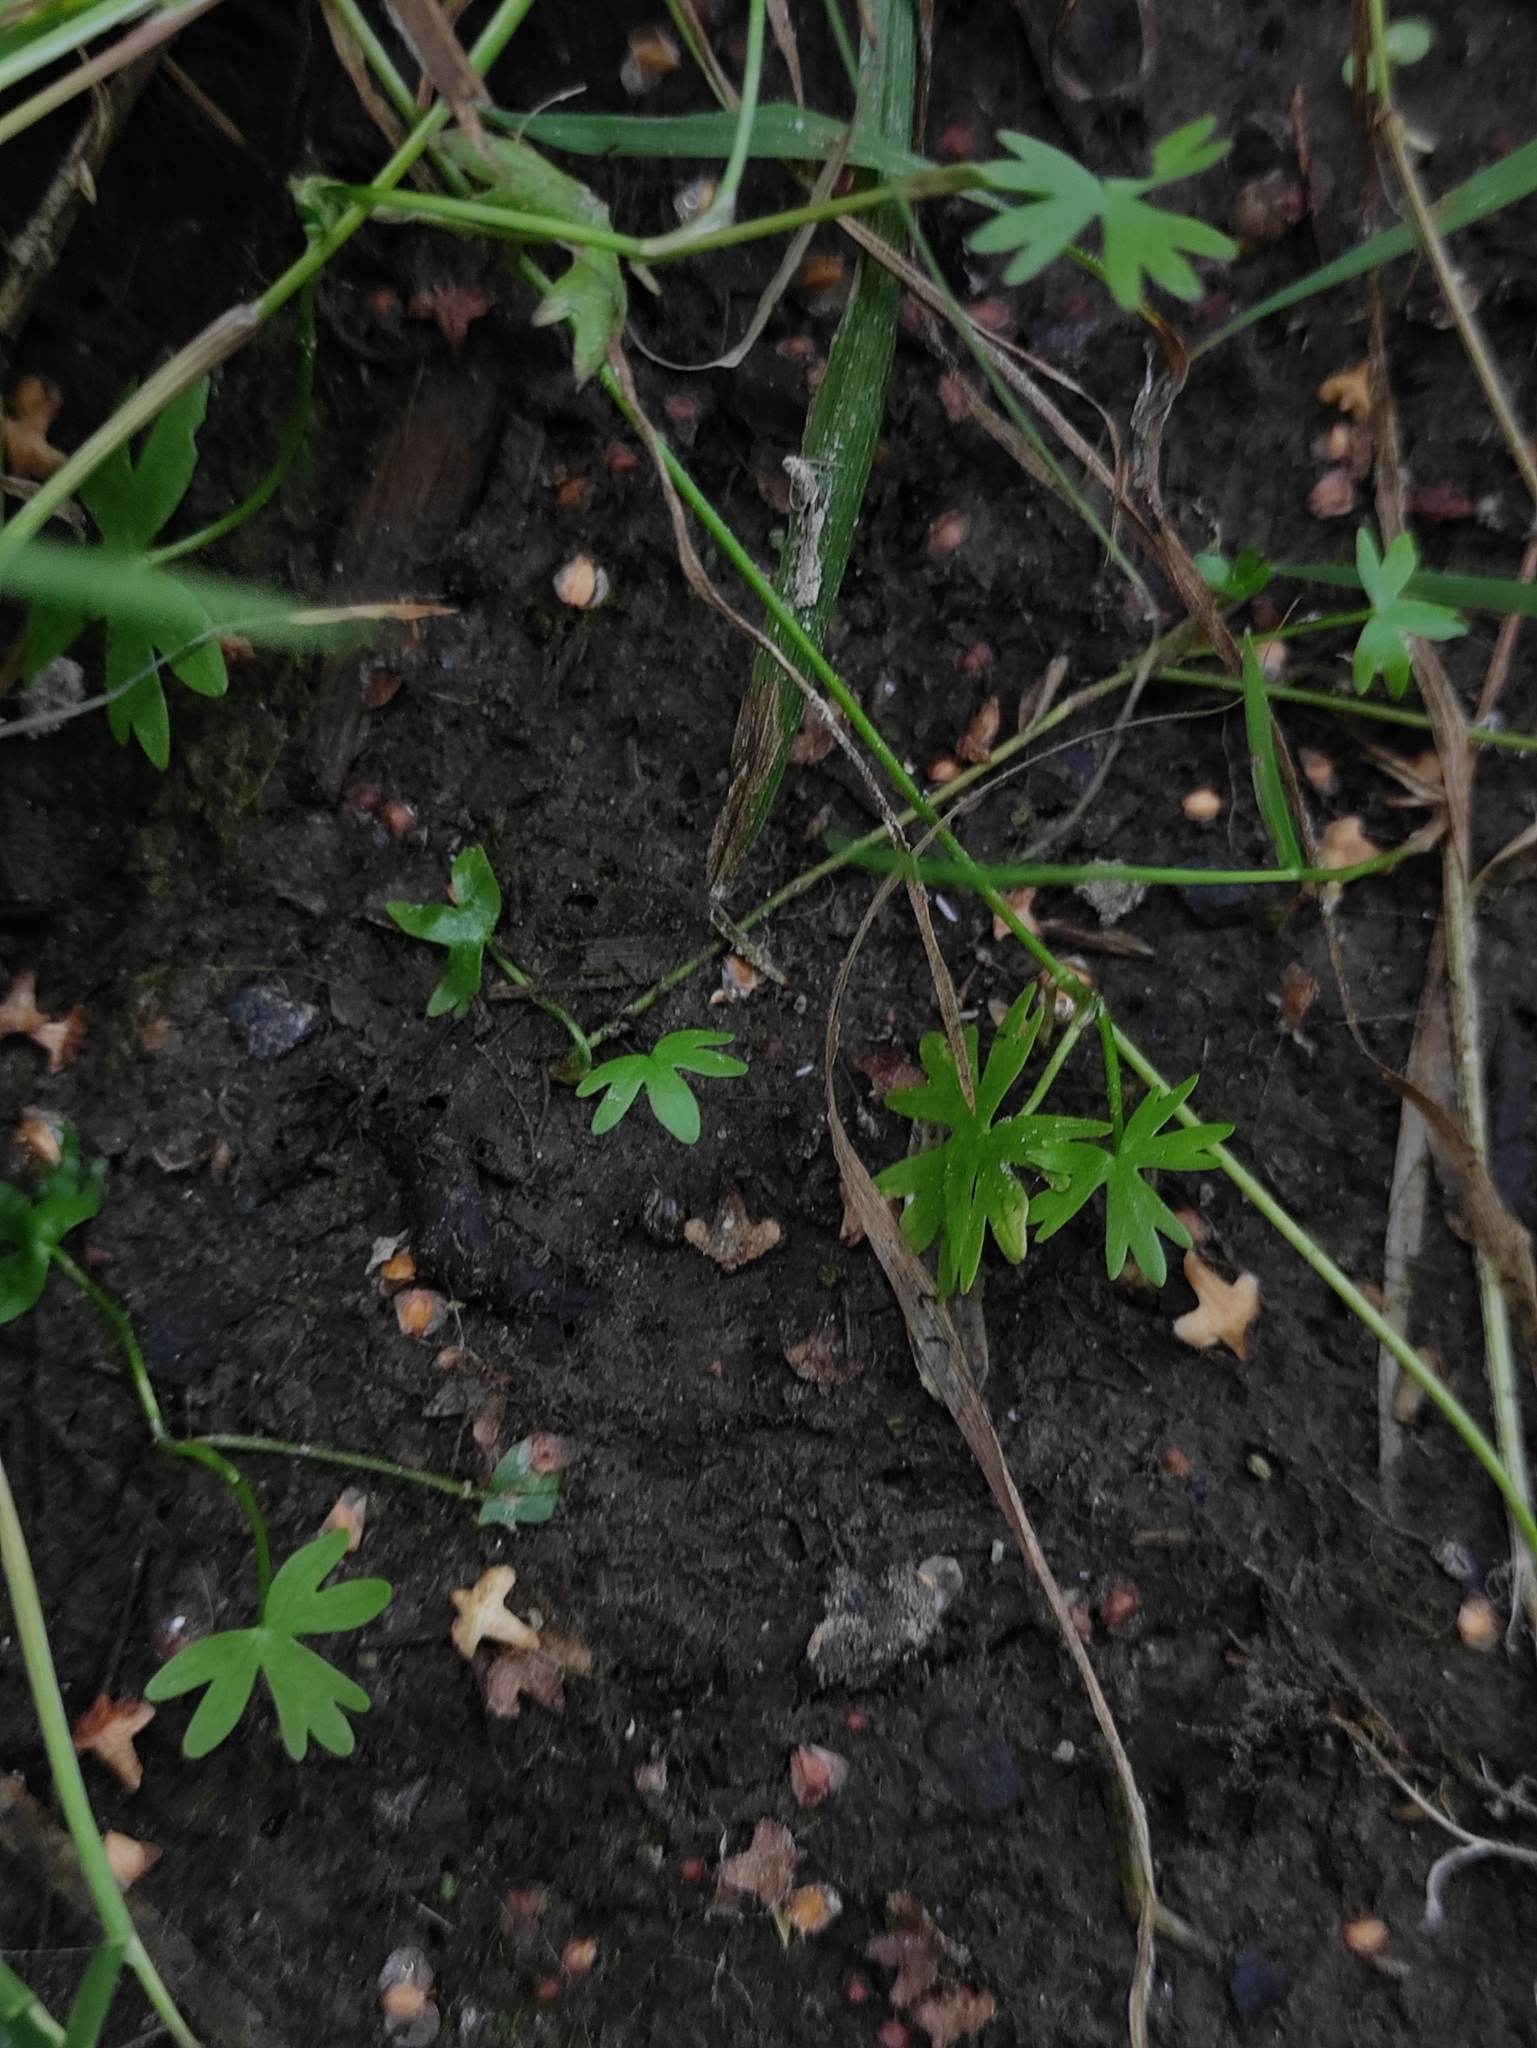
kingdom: Plantae
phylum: Tracheophyta
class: Magnoliopsida
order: Ranunculales
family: Ranunculaceae
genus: Ranunculus
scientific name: Ranunculus gmelinii
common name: Gmelin's buttercup
